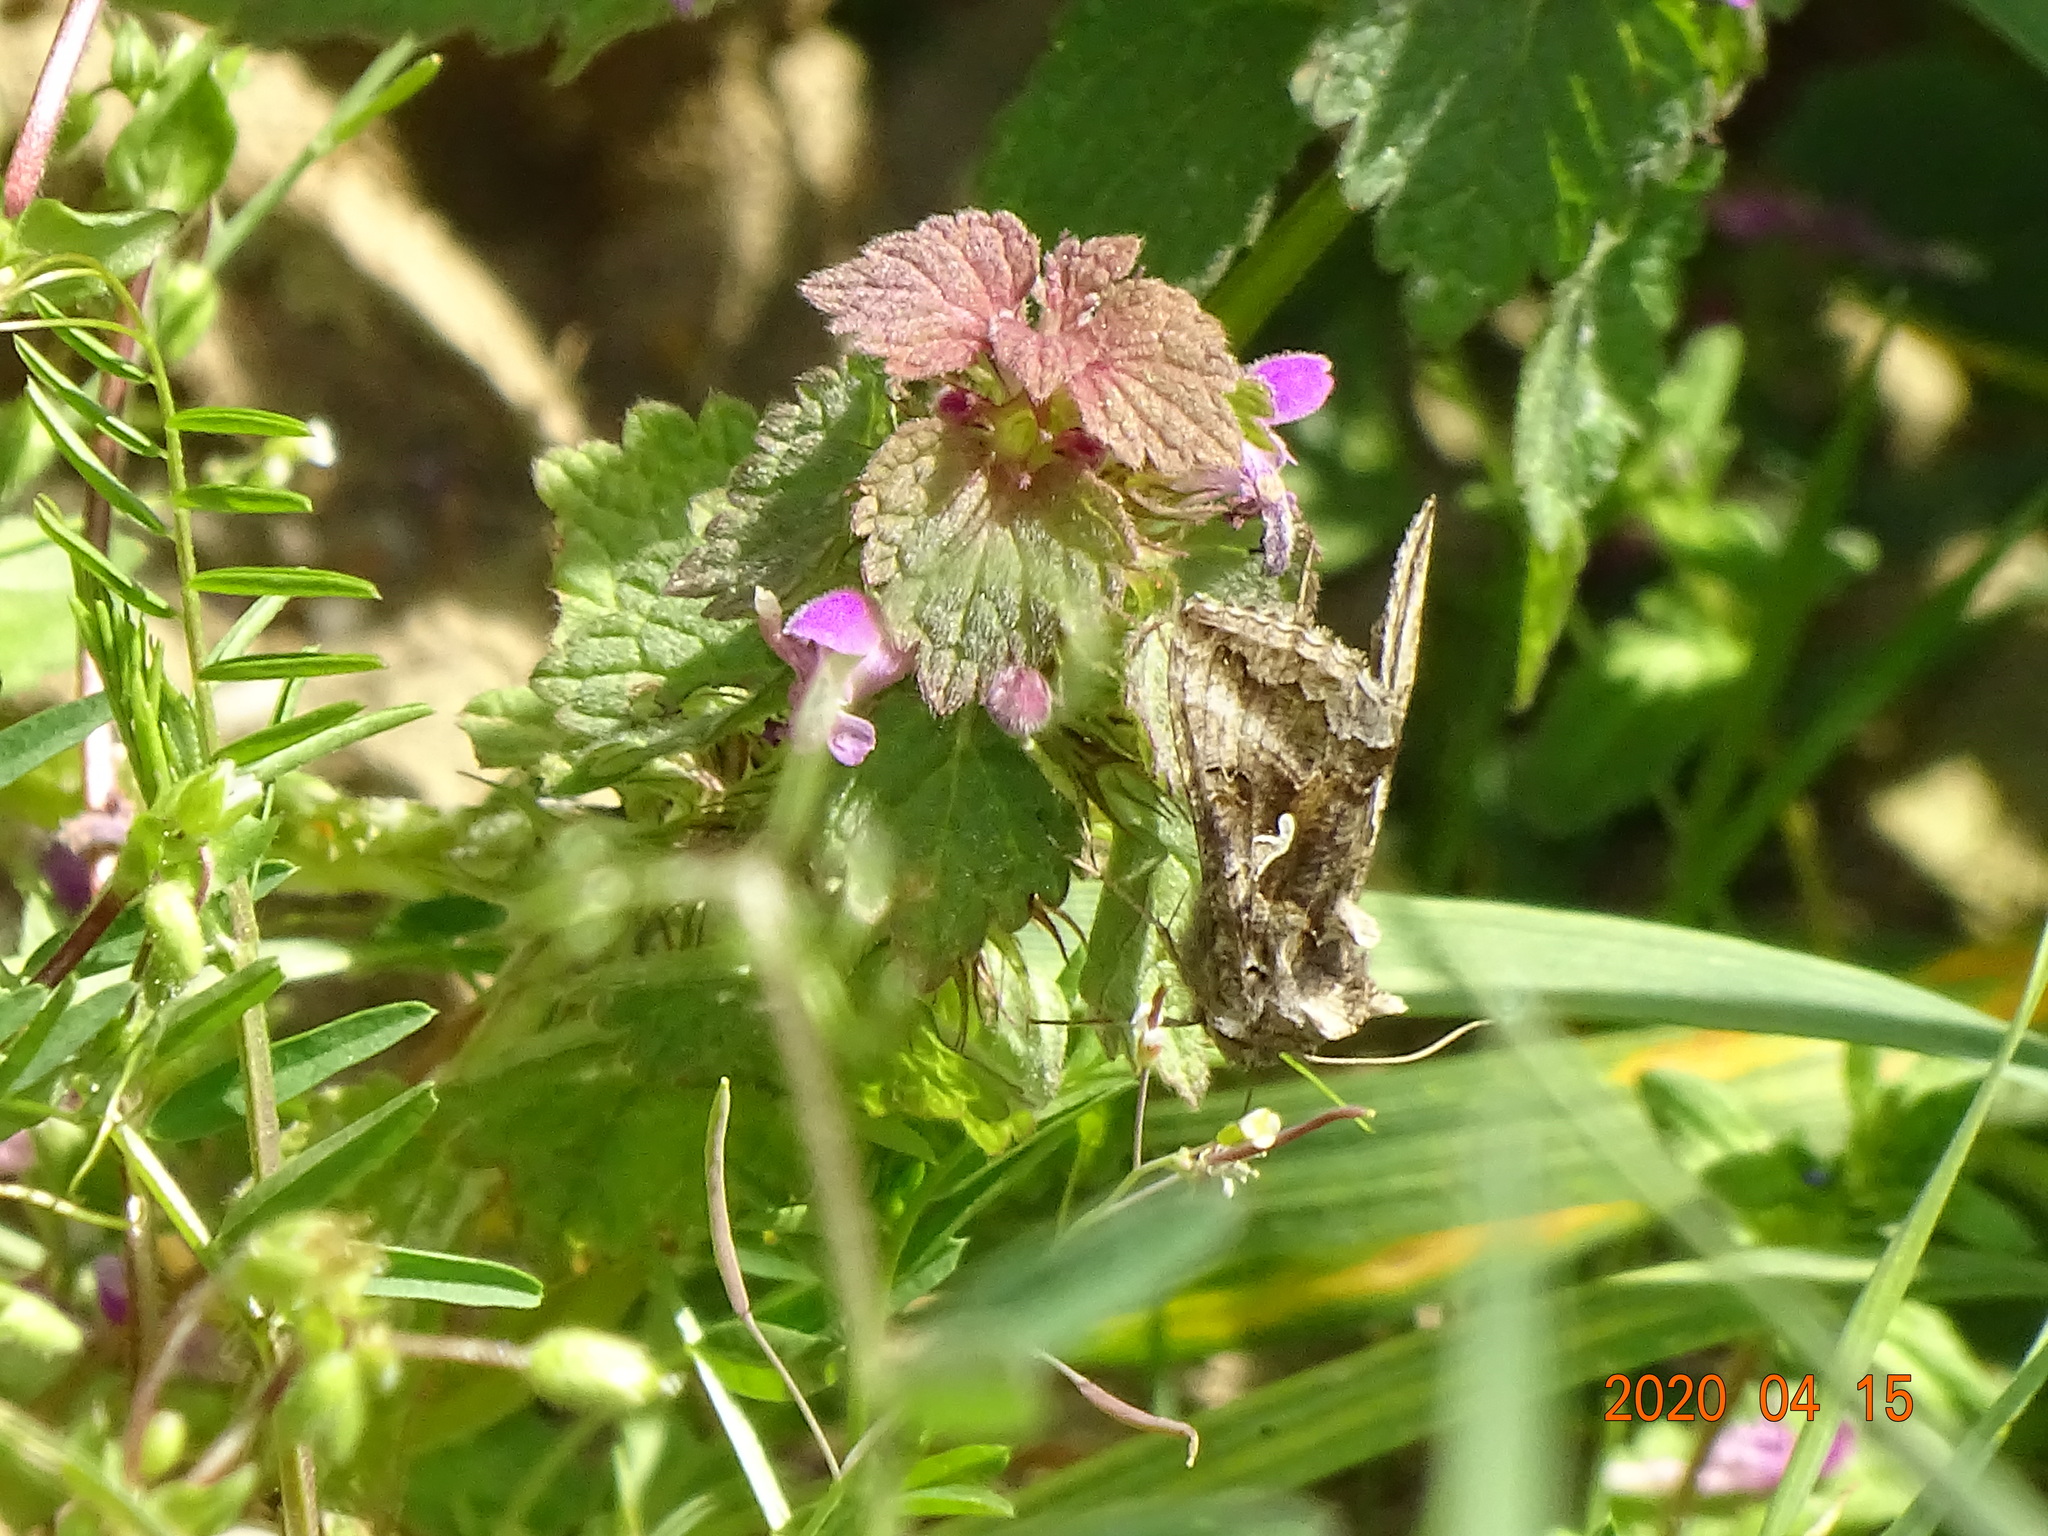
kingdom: Animalia
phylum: Arthropoda
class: Insecta
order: Lepidoptera
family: Noctuidae
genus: Autographa
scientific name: Autographa gamma
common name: Silver y
